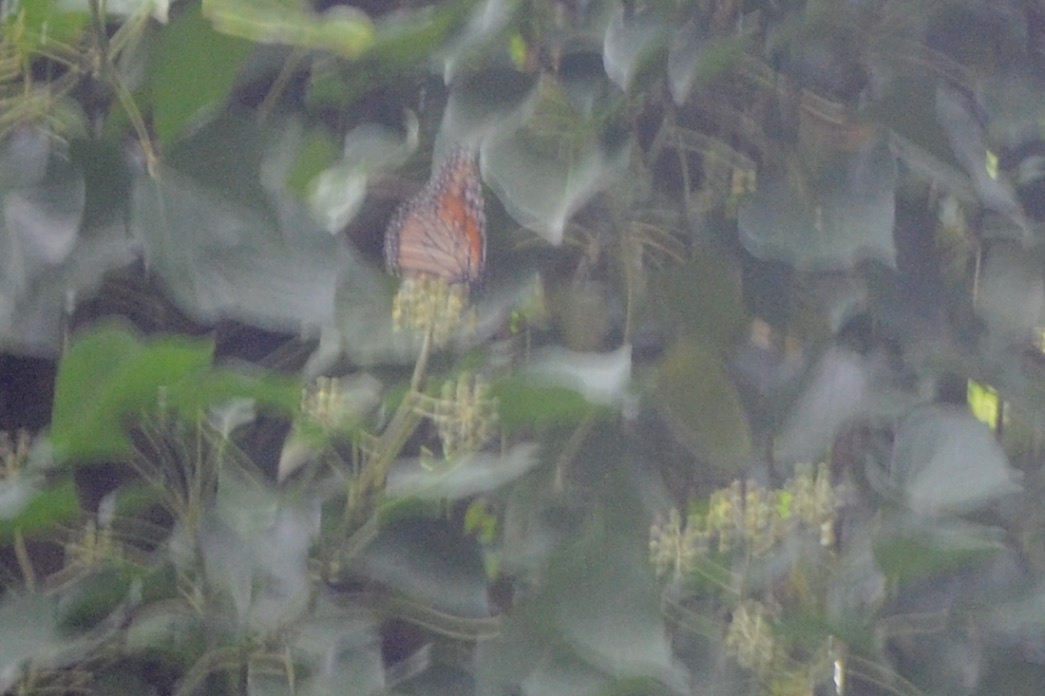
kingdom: Animalia
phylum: Arthropoda
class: Insecta
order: Lepidoptera
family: Nymphalidae
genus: Danaus
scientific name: Danaus plexippus
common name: Monarch
